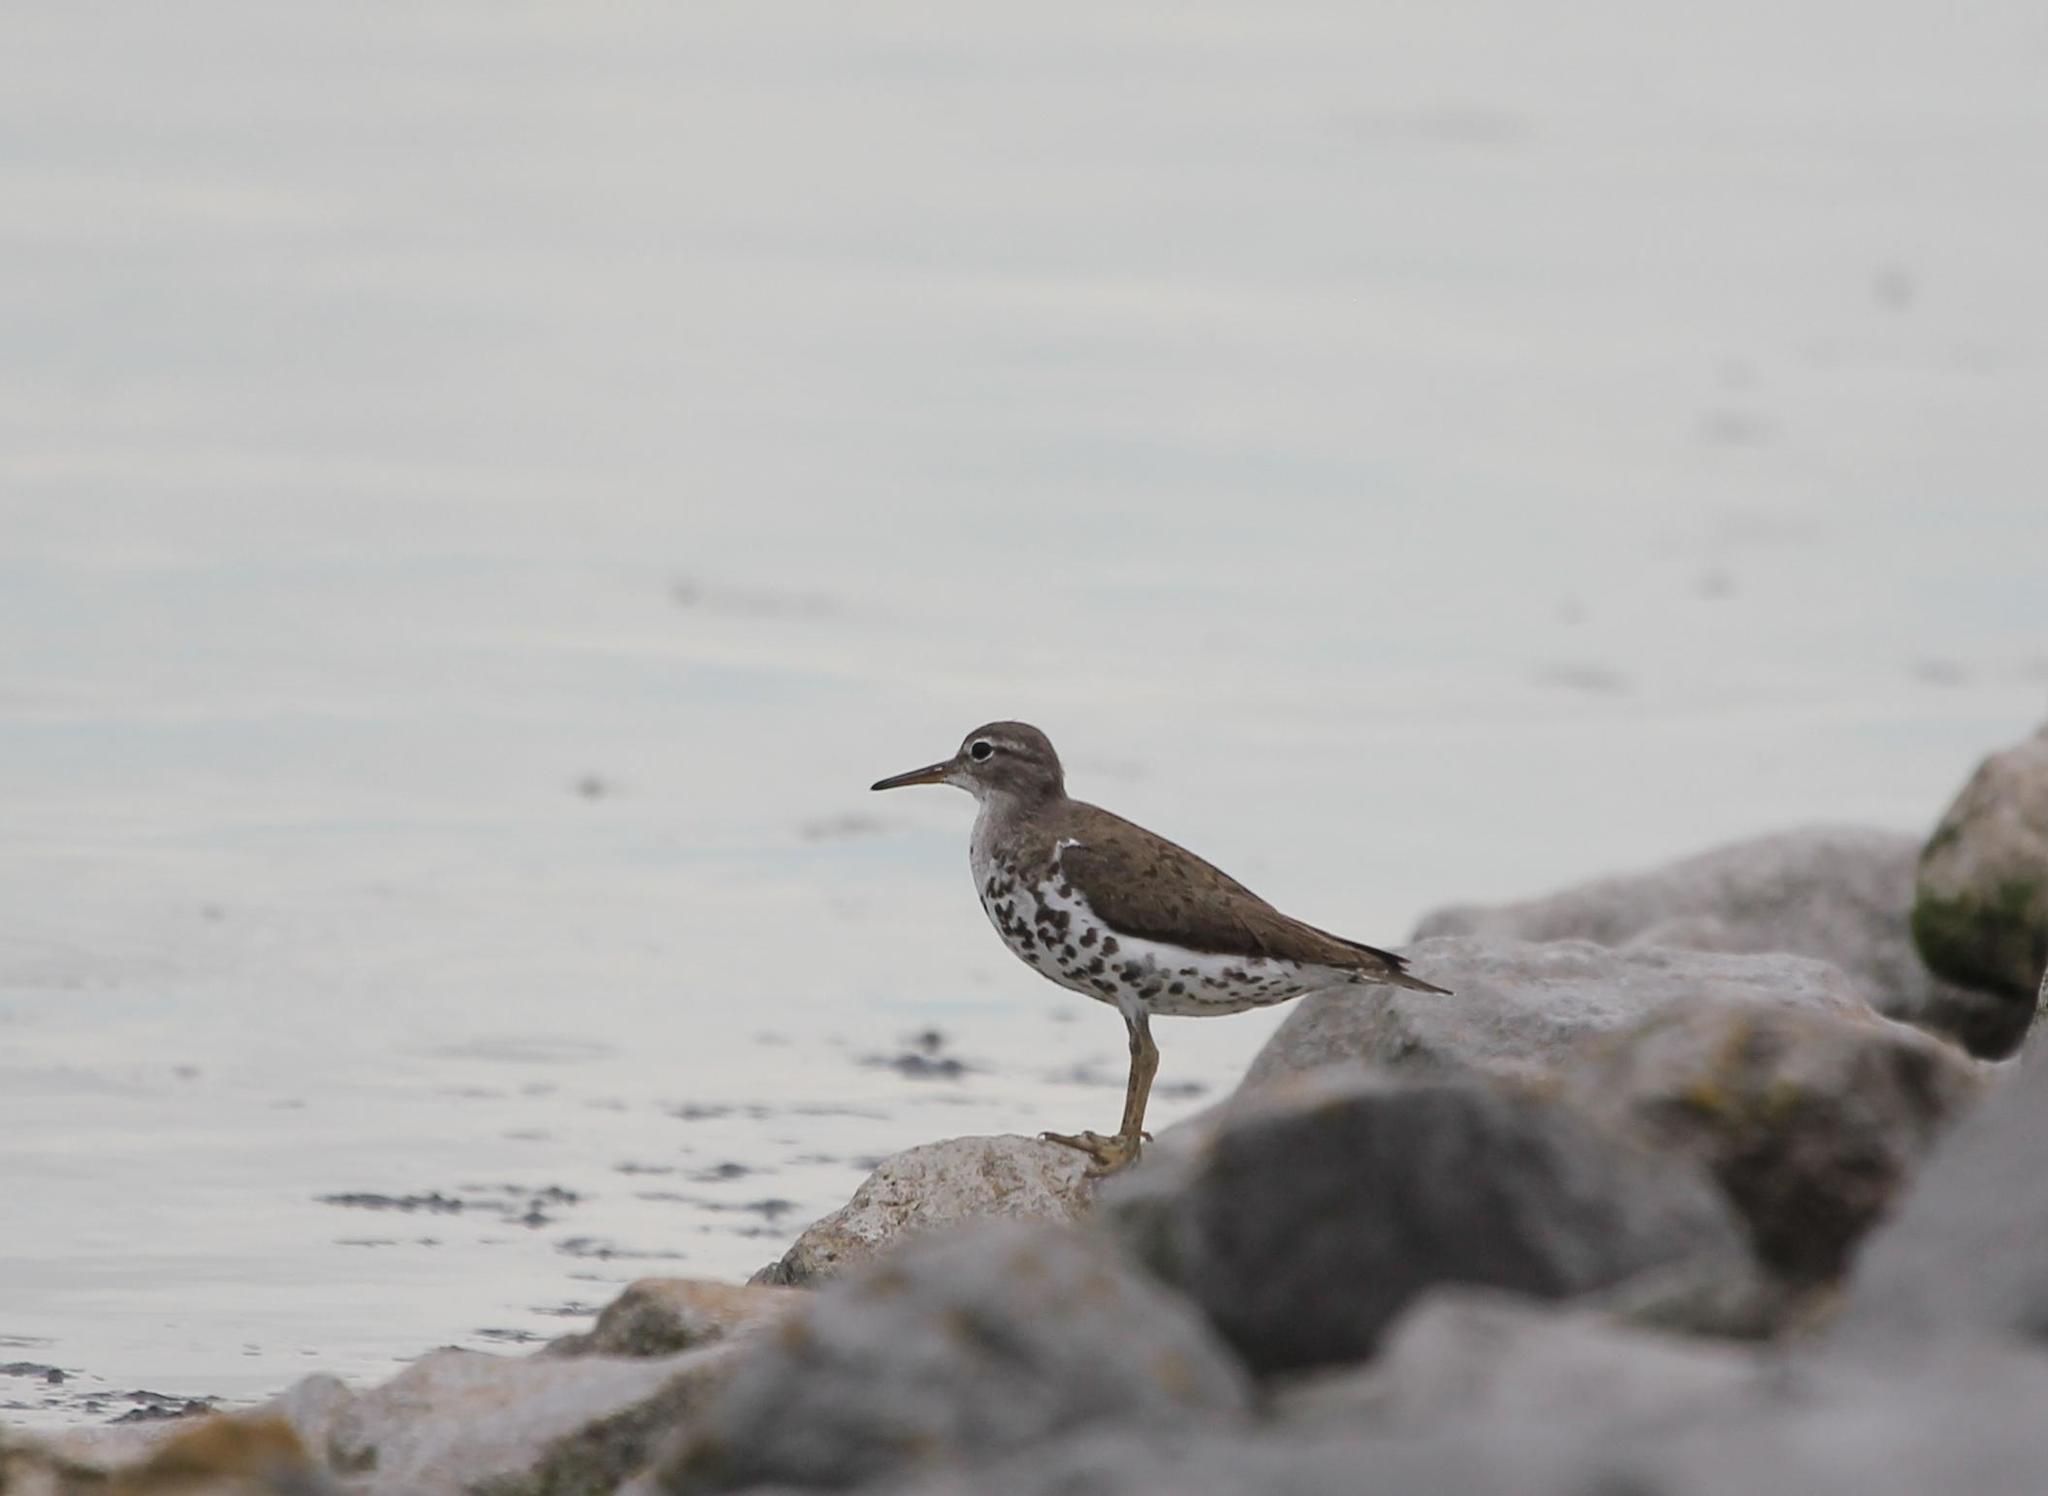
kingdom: Animalia
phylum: Chordata
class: Aves
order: Charadriiformes
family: Scolopacidae
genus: Actitis
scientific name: Actitis macularius
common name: Spotted sandpiper
